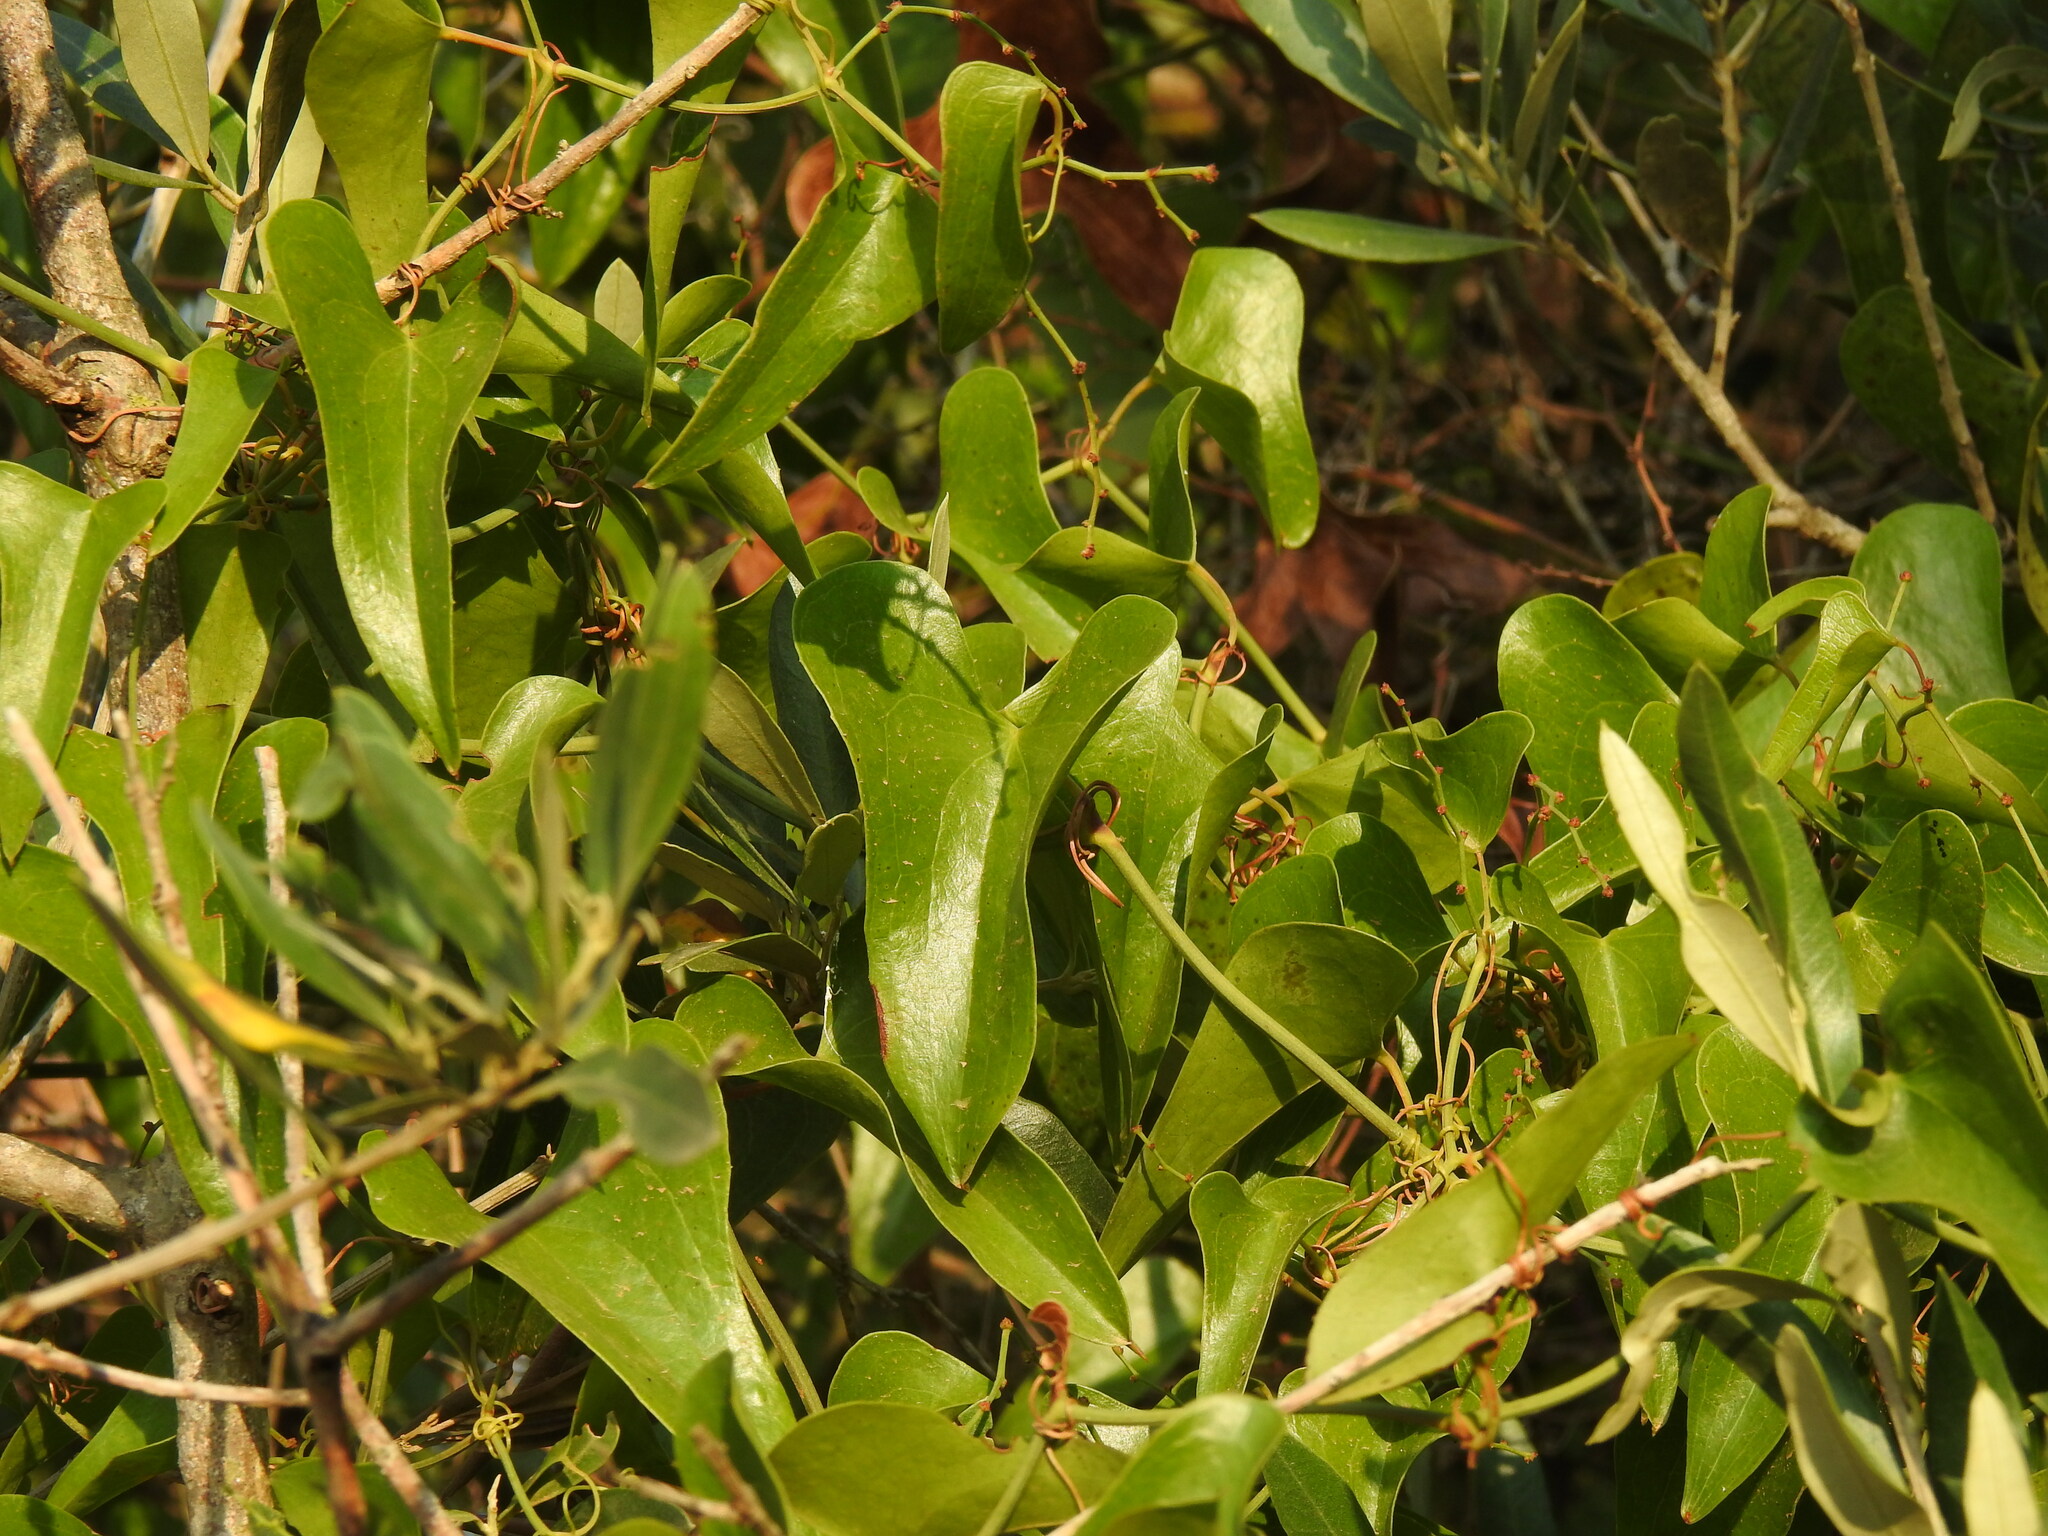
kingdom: Plantae
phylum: Tracheophyta
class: Liliopsida
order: Liliales
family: Smilacaceae
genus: Smilax
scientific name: Smilax aspera
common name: Common smilax
